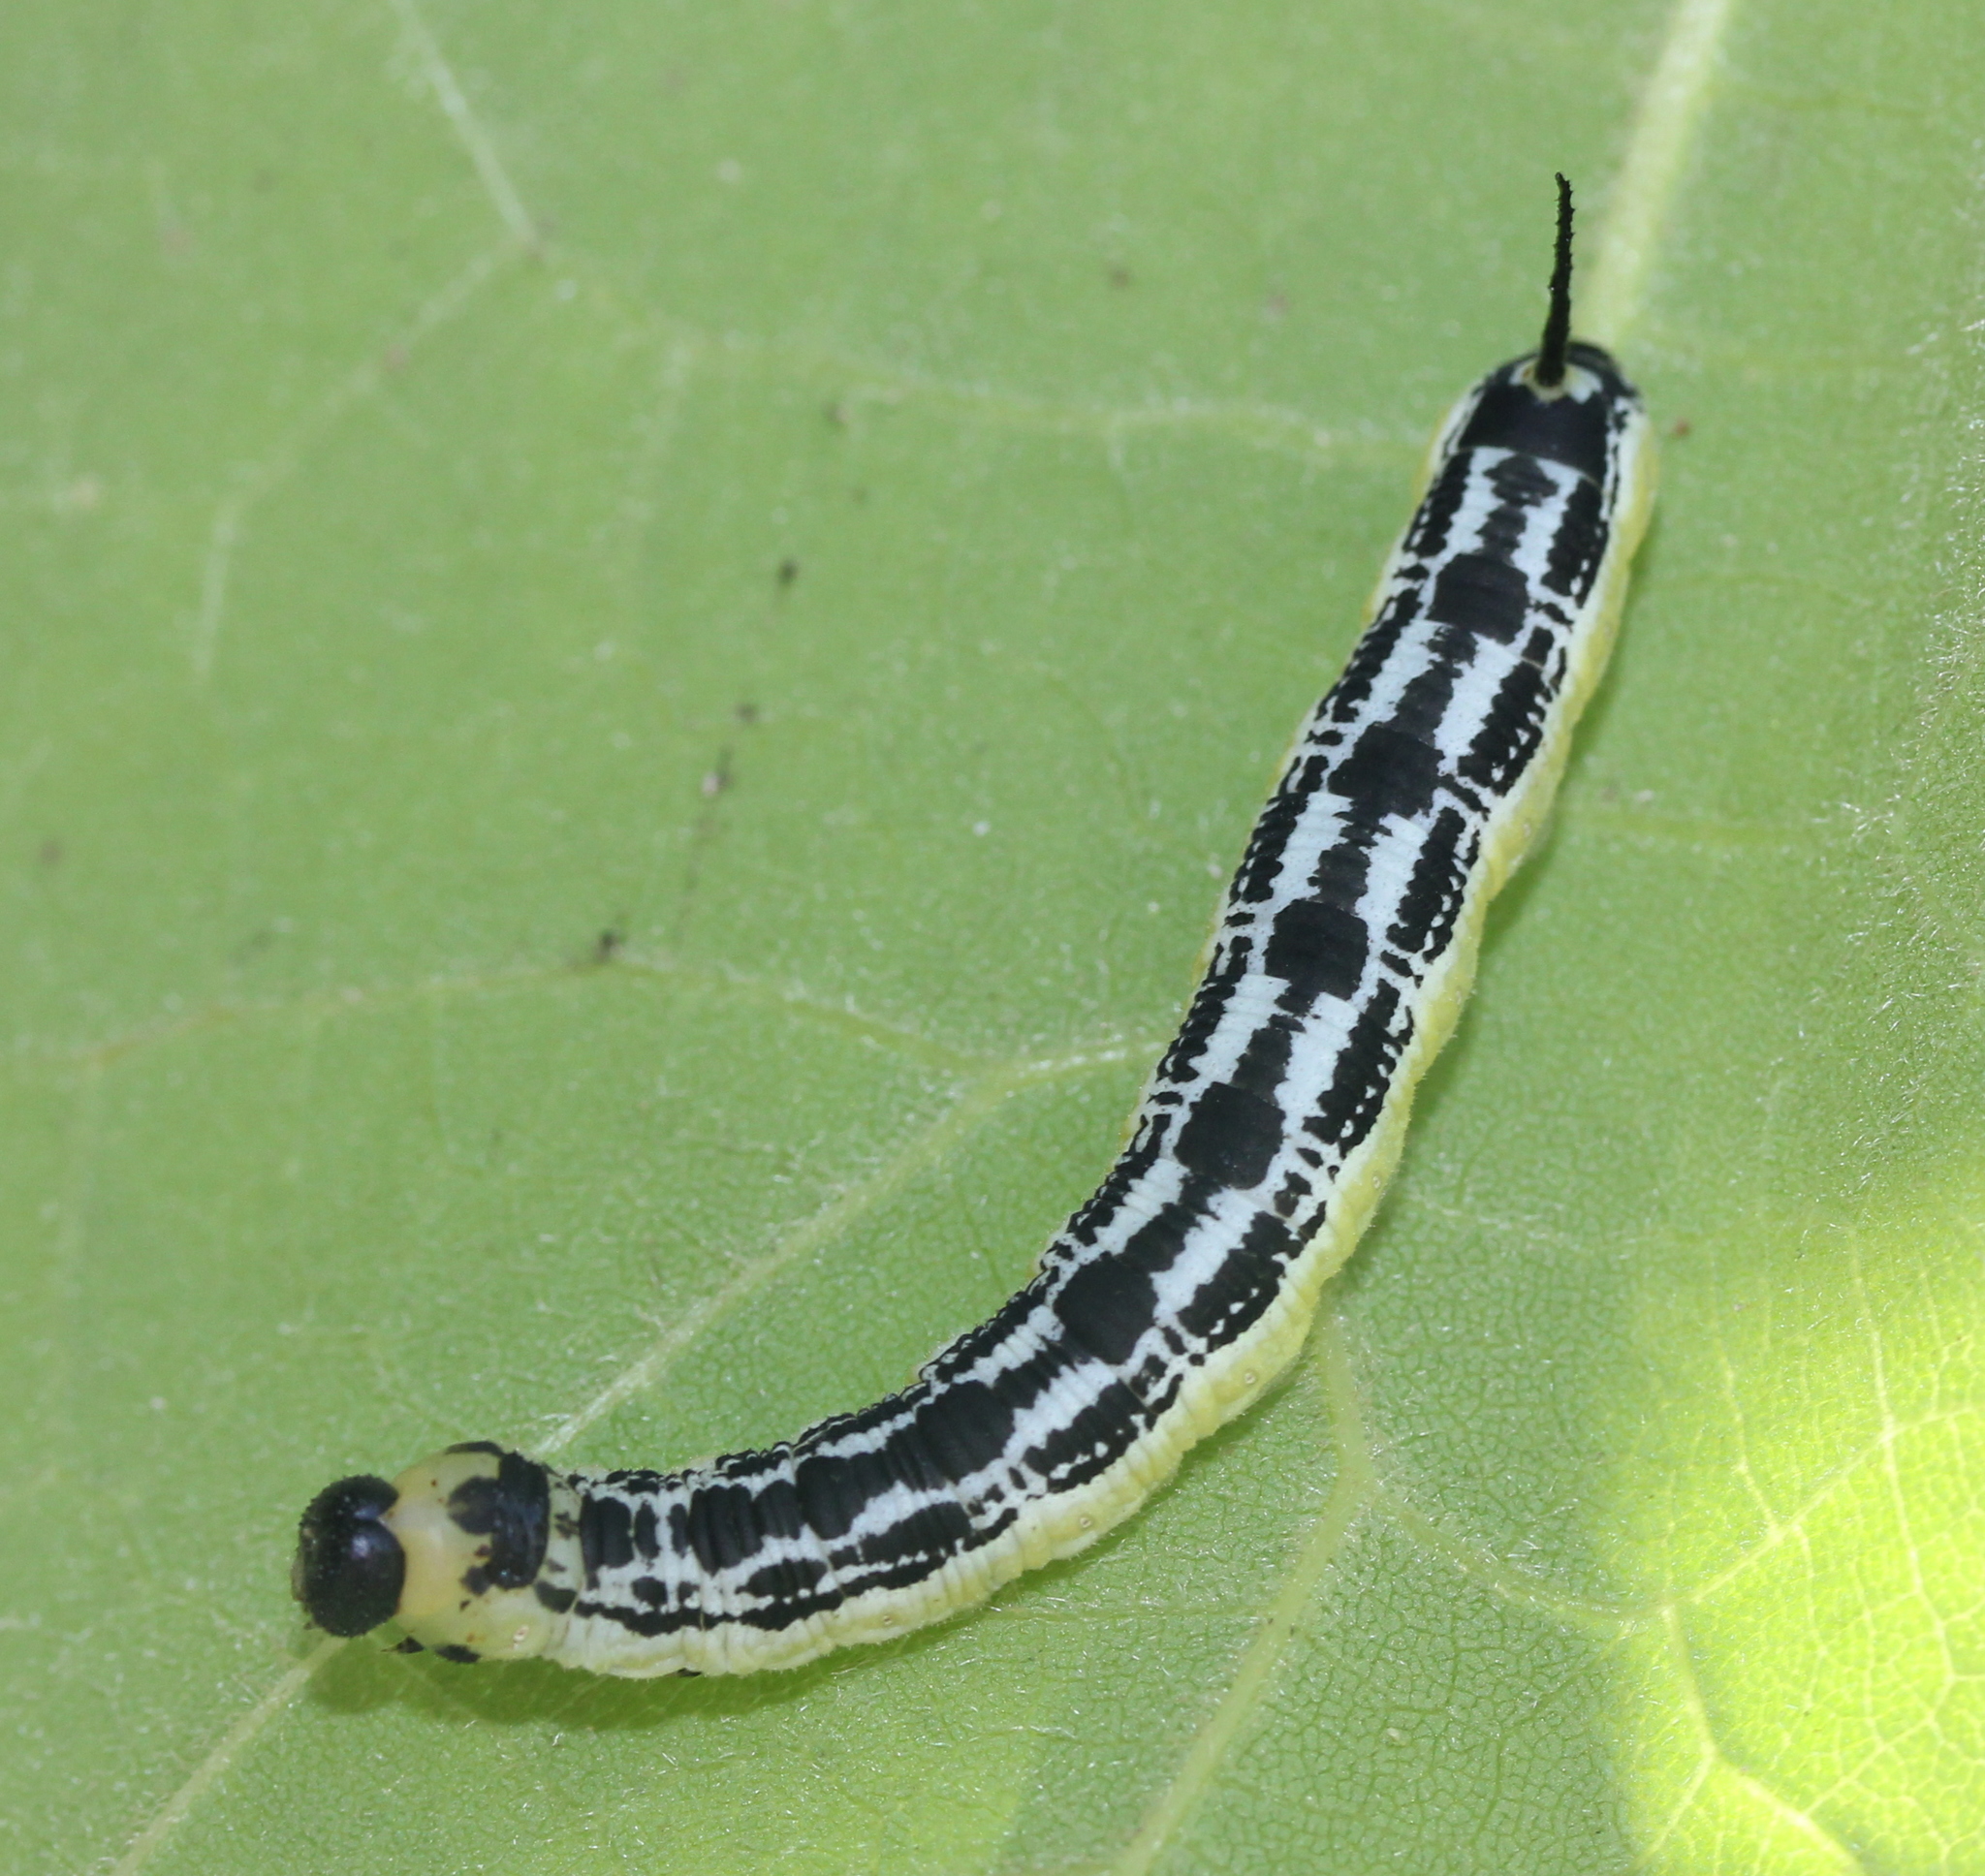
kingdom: Animalia
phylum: Arthropoda
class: Insecta
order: Lepidoptera
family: Sphingidae
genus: Ceratomia
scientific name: Ceratomia catalpae
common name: Catalpa hornworm
